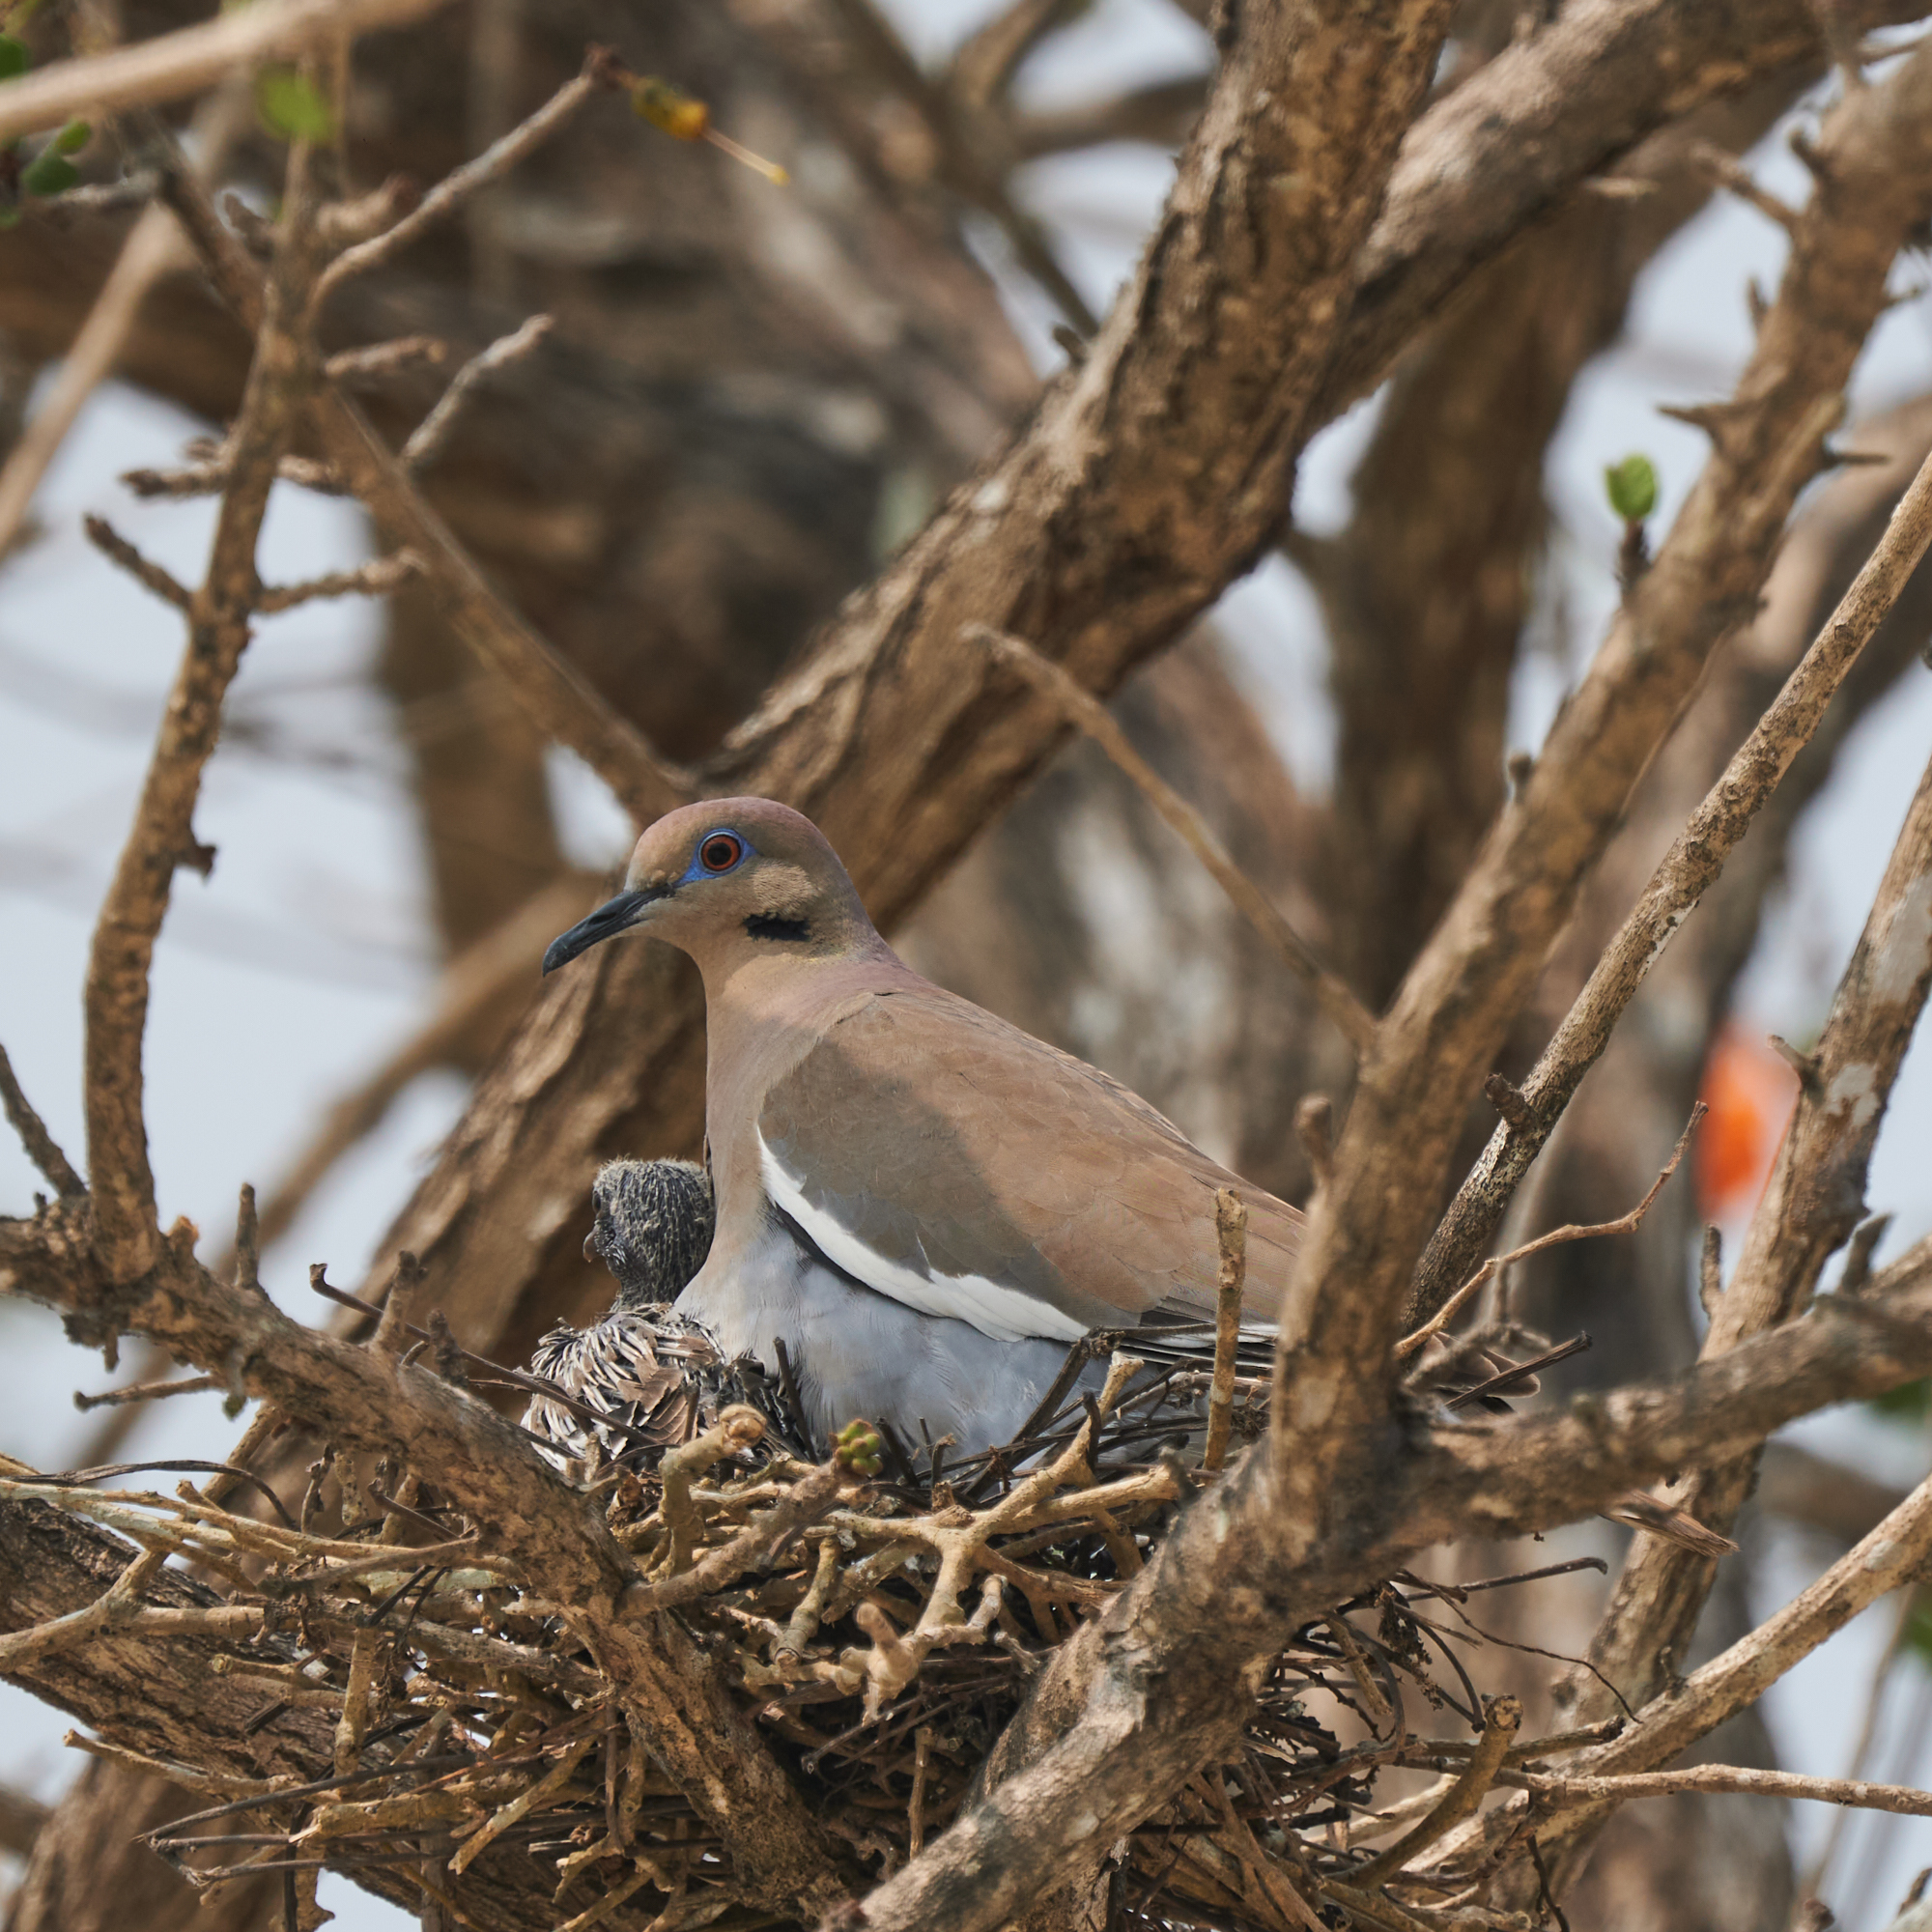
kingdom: Animalia
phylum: Chordata
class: Aves
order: Columbiformes
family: Columbidae
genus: Zenaida
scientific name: Zenaida asiatica
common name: White-winged dove
